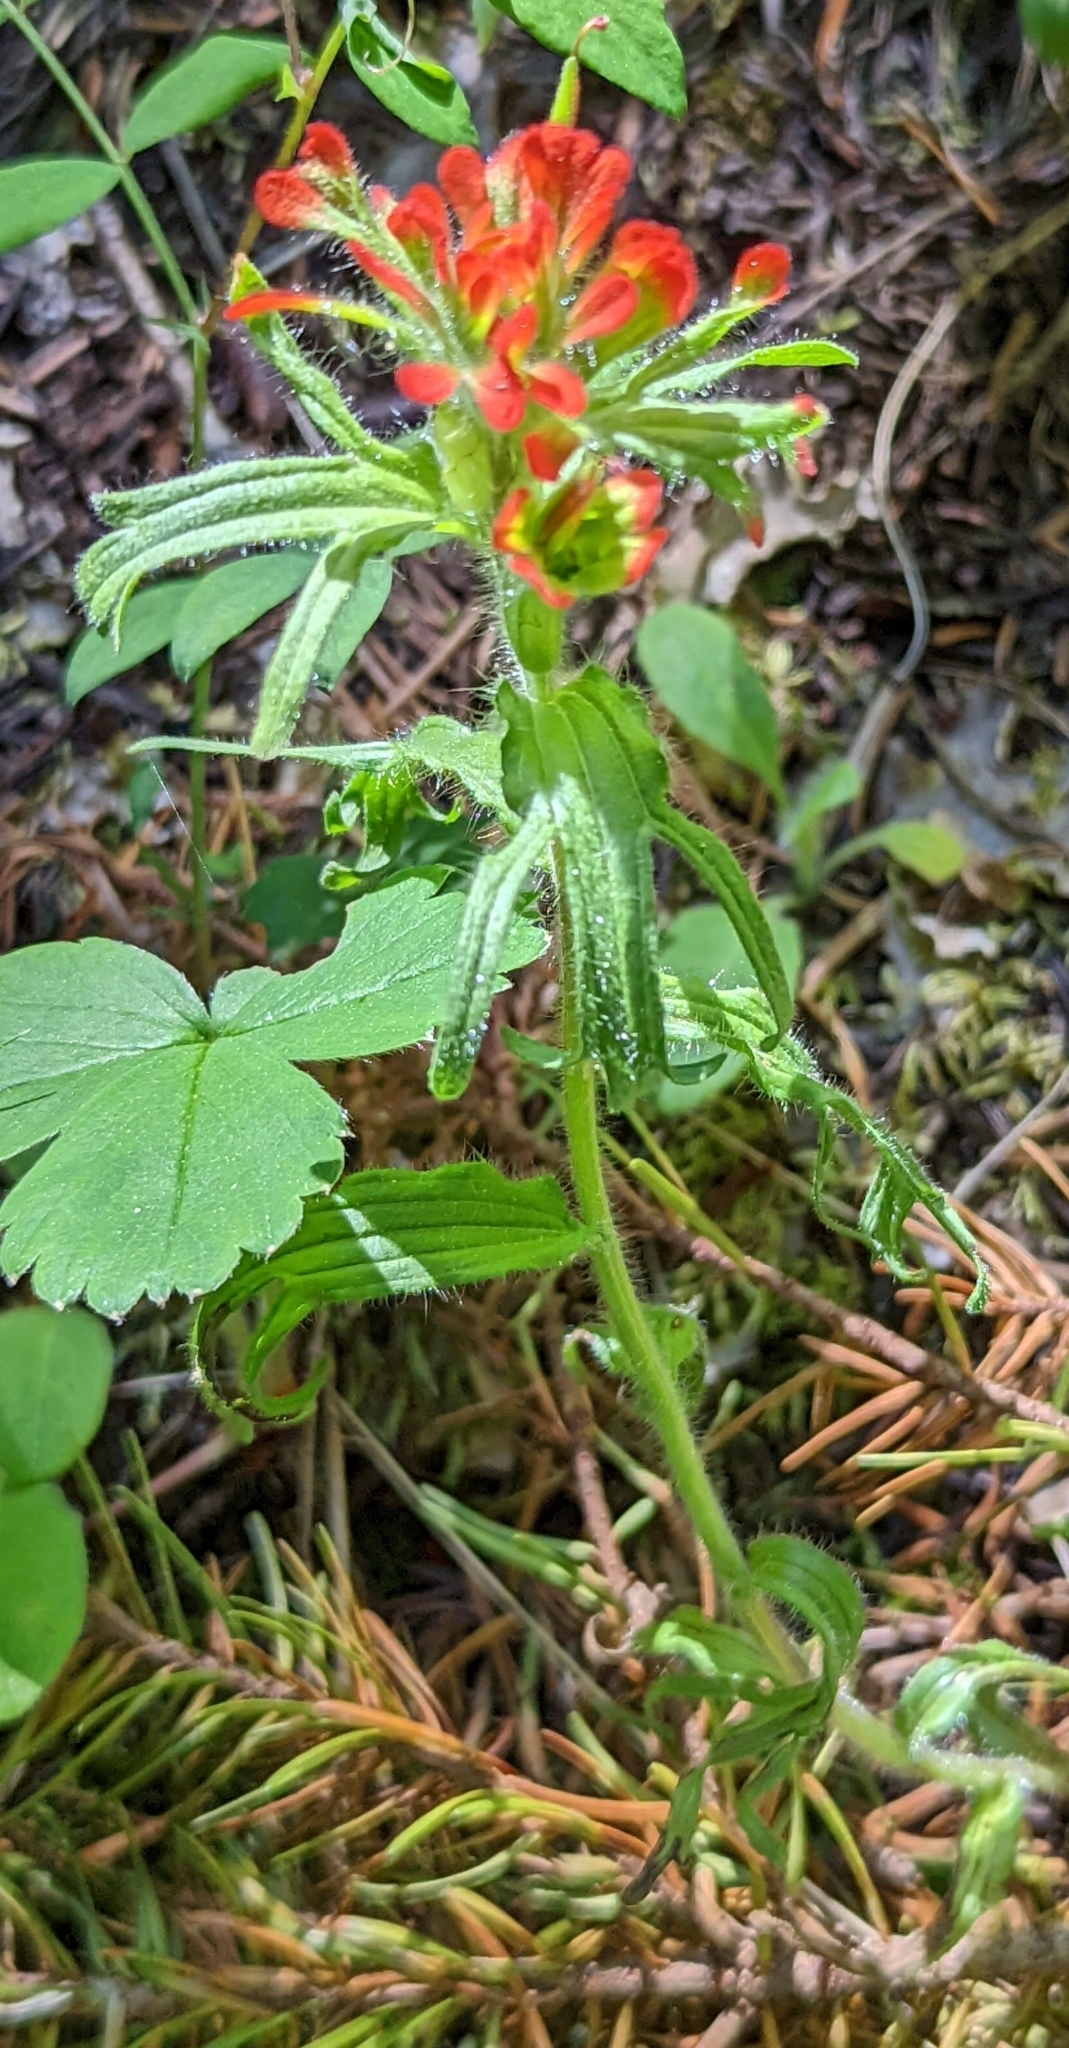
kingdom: Plantae
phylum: Tracheophyta
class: Magnoliopsida
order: Lamiales
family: Orobanchaceae
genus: Castilleja
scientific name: Castilleja hispida
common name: Bristly paintbrush
